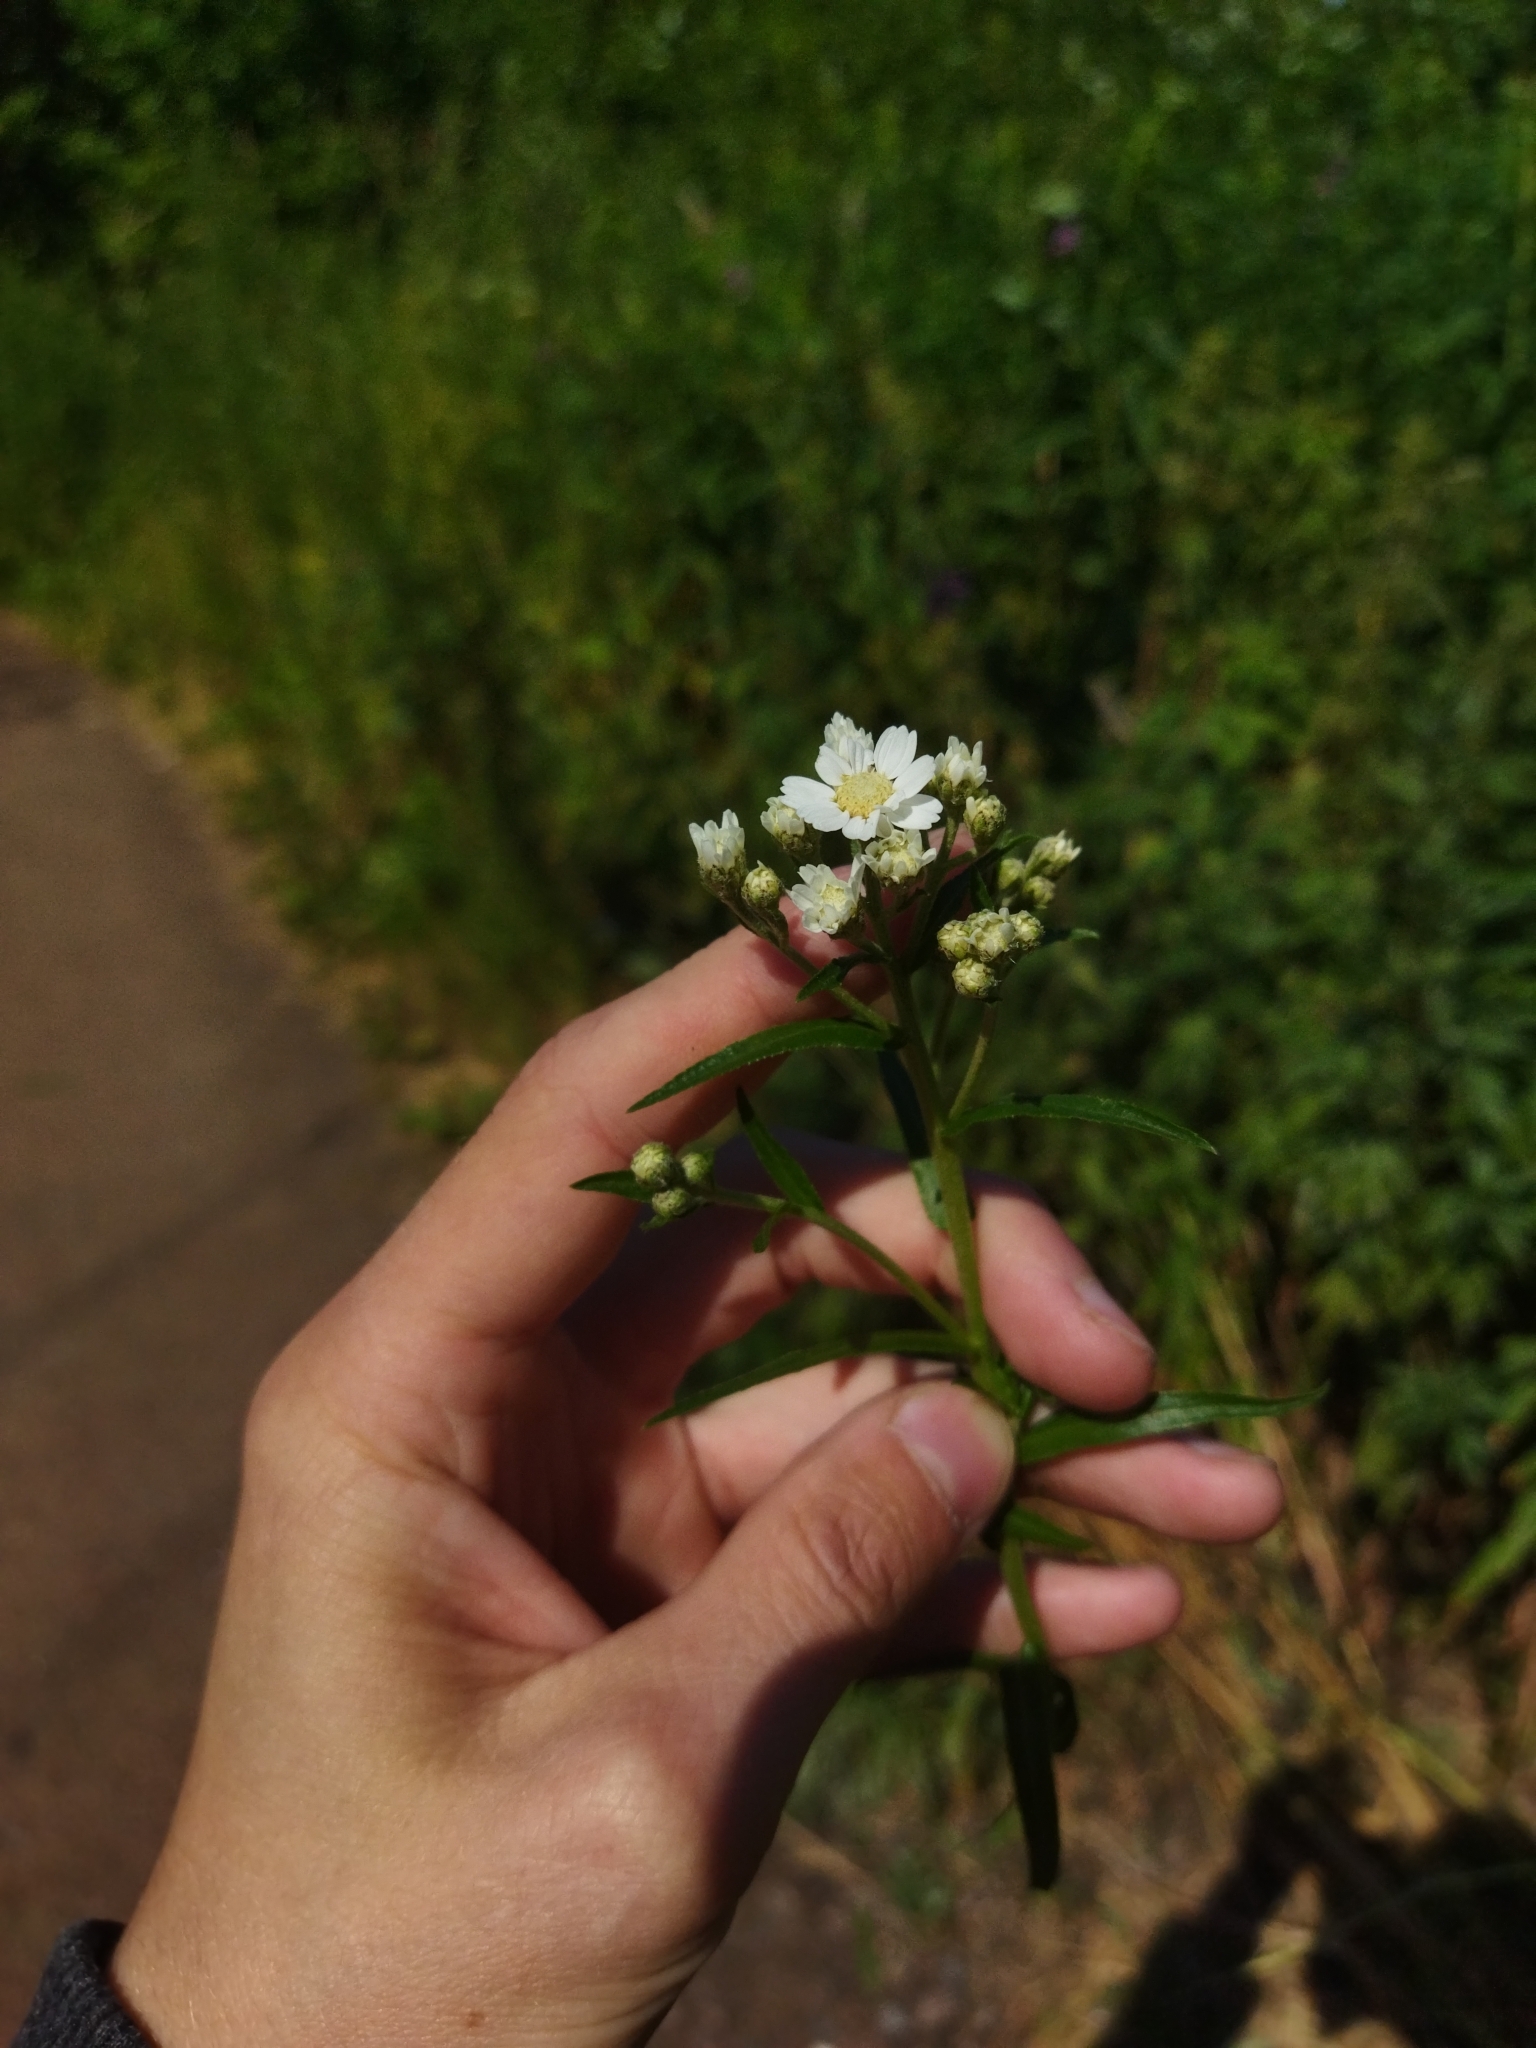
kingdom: Plantae
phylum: Tracheophyta
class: Magnoliopsida
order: Asterales
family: Asteraceae
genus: Achillea
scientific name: Achillea ptarmica
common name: Sneezeweed
